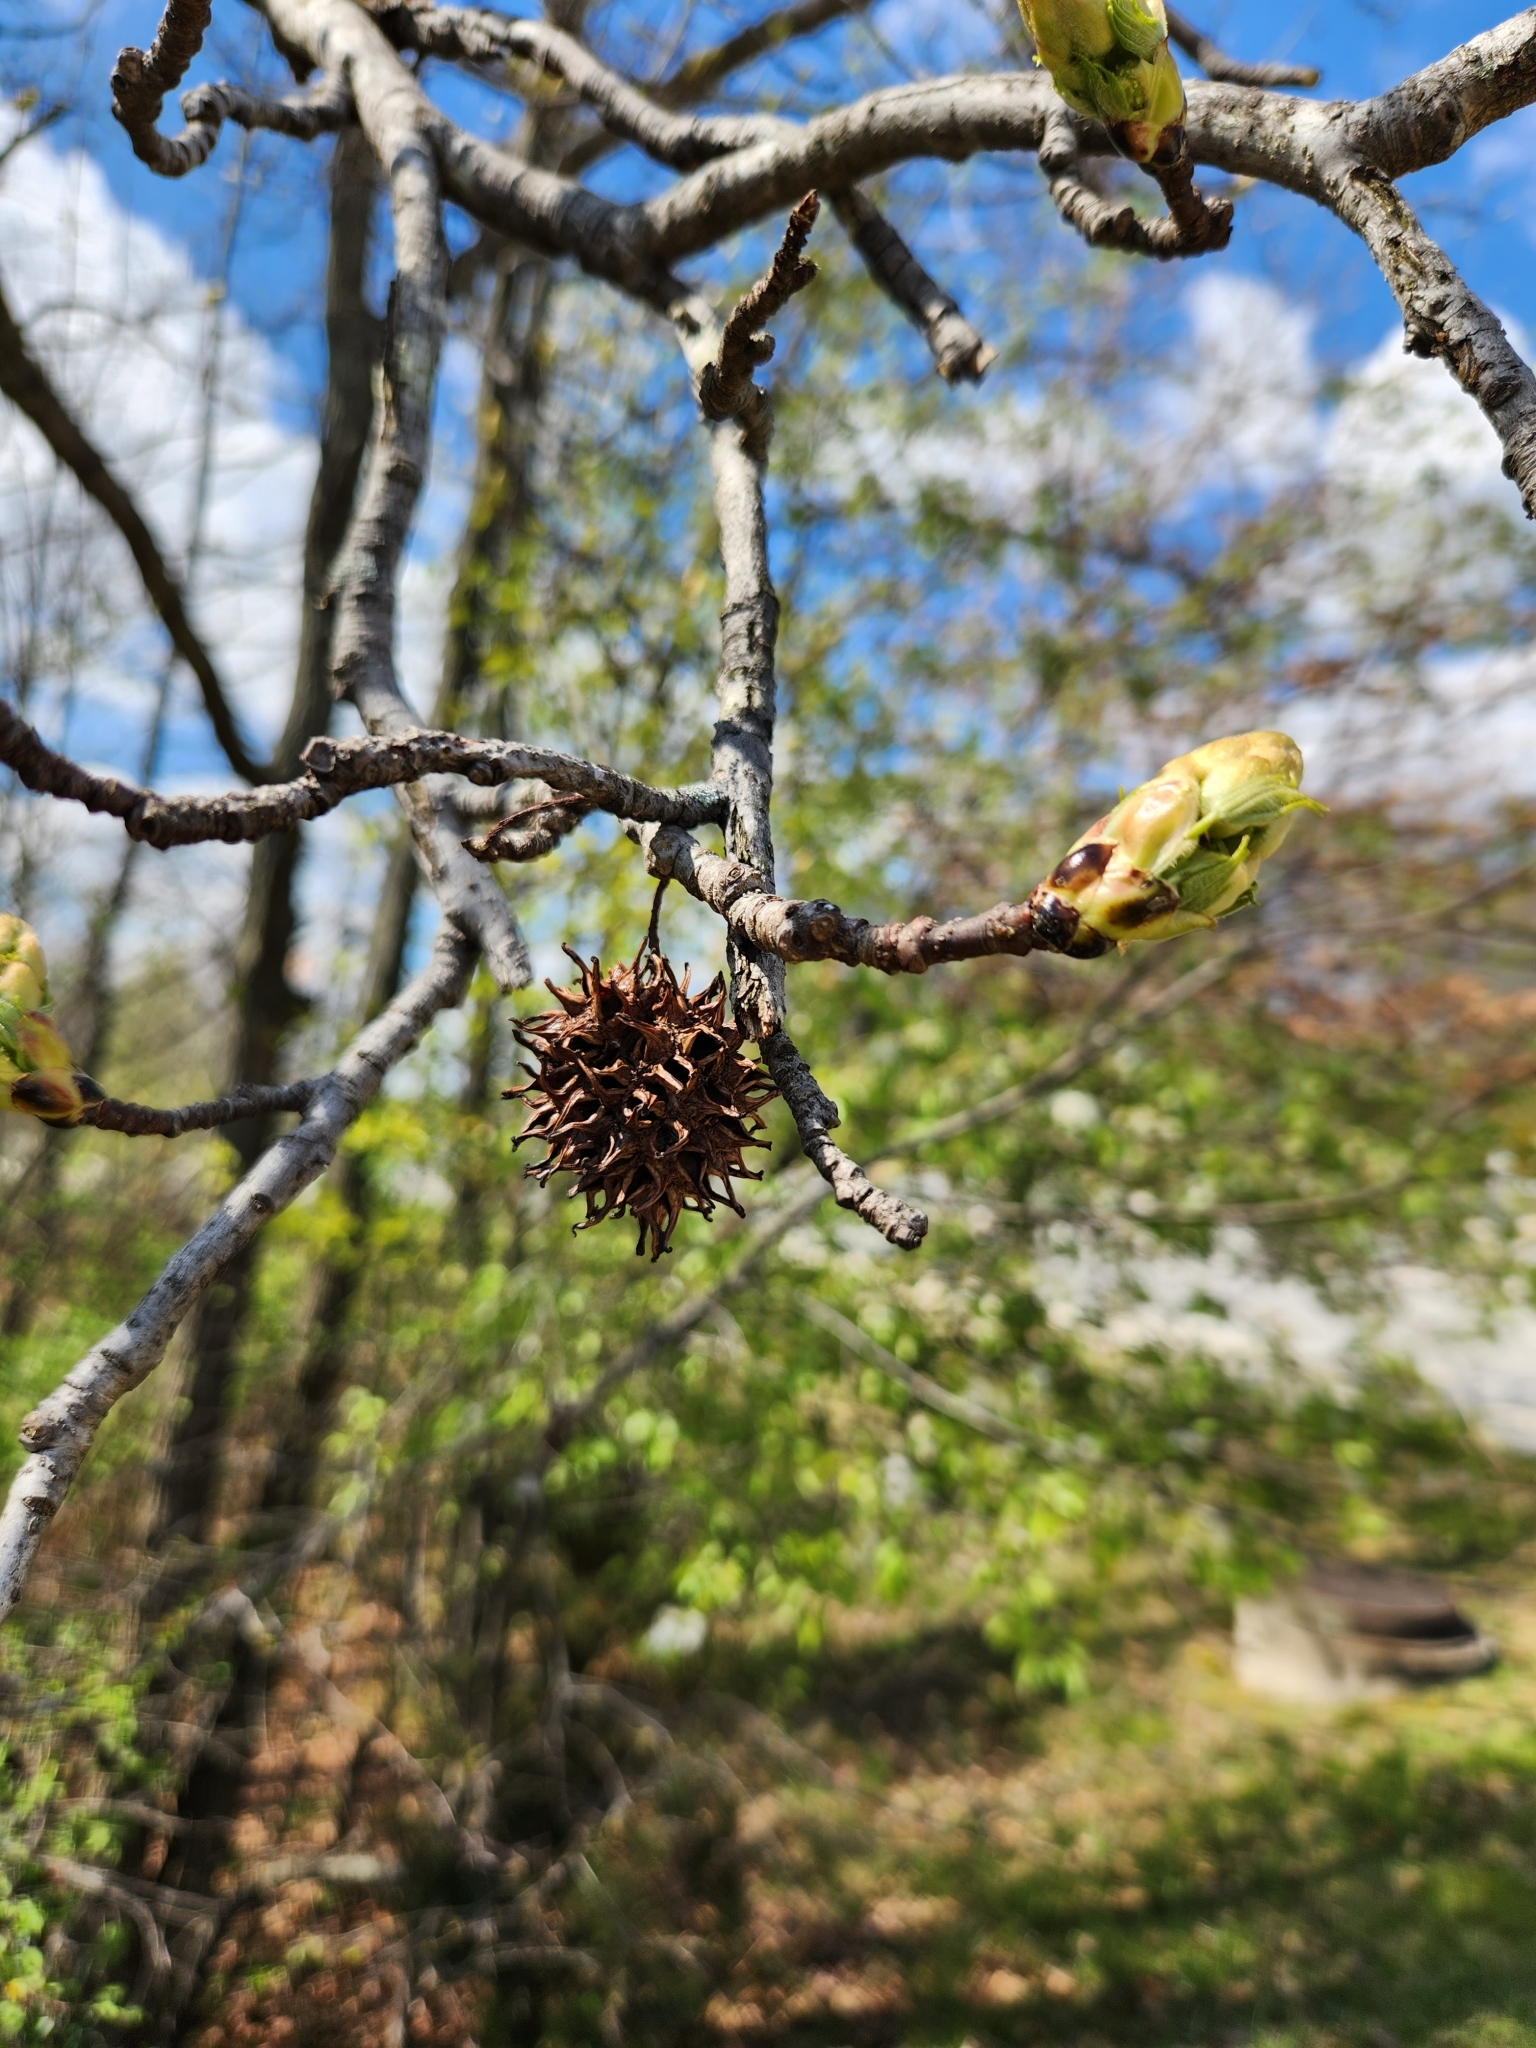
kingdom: Plantae
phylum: Tracheophyta
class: Magnoliopsida
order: Saxifragales
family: Altingiaceae
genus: Liquidambar
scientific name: Liquidambar styraciflua
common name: Sweet gum
